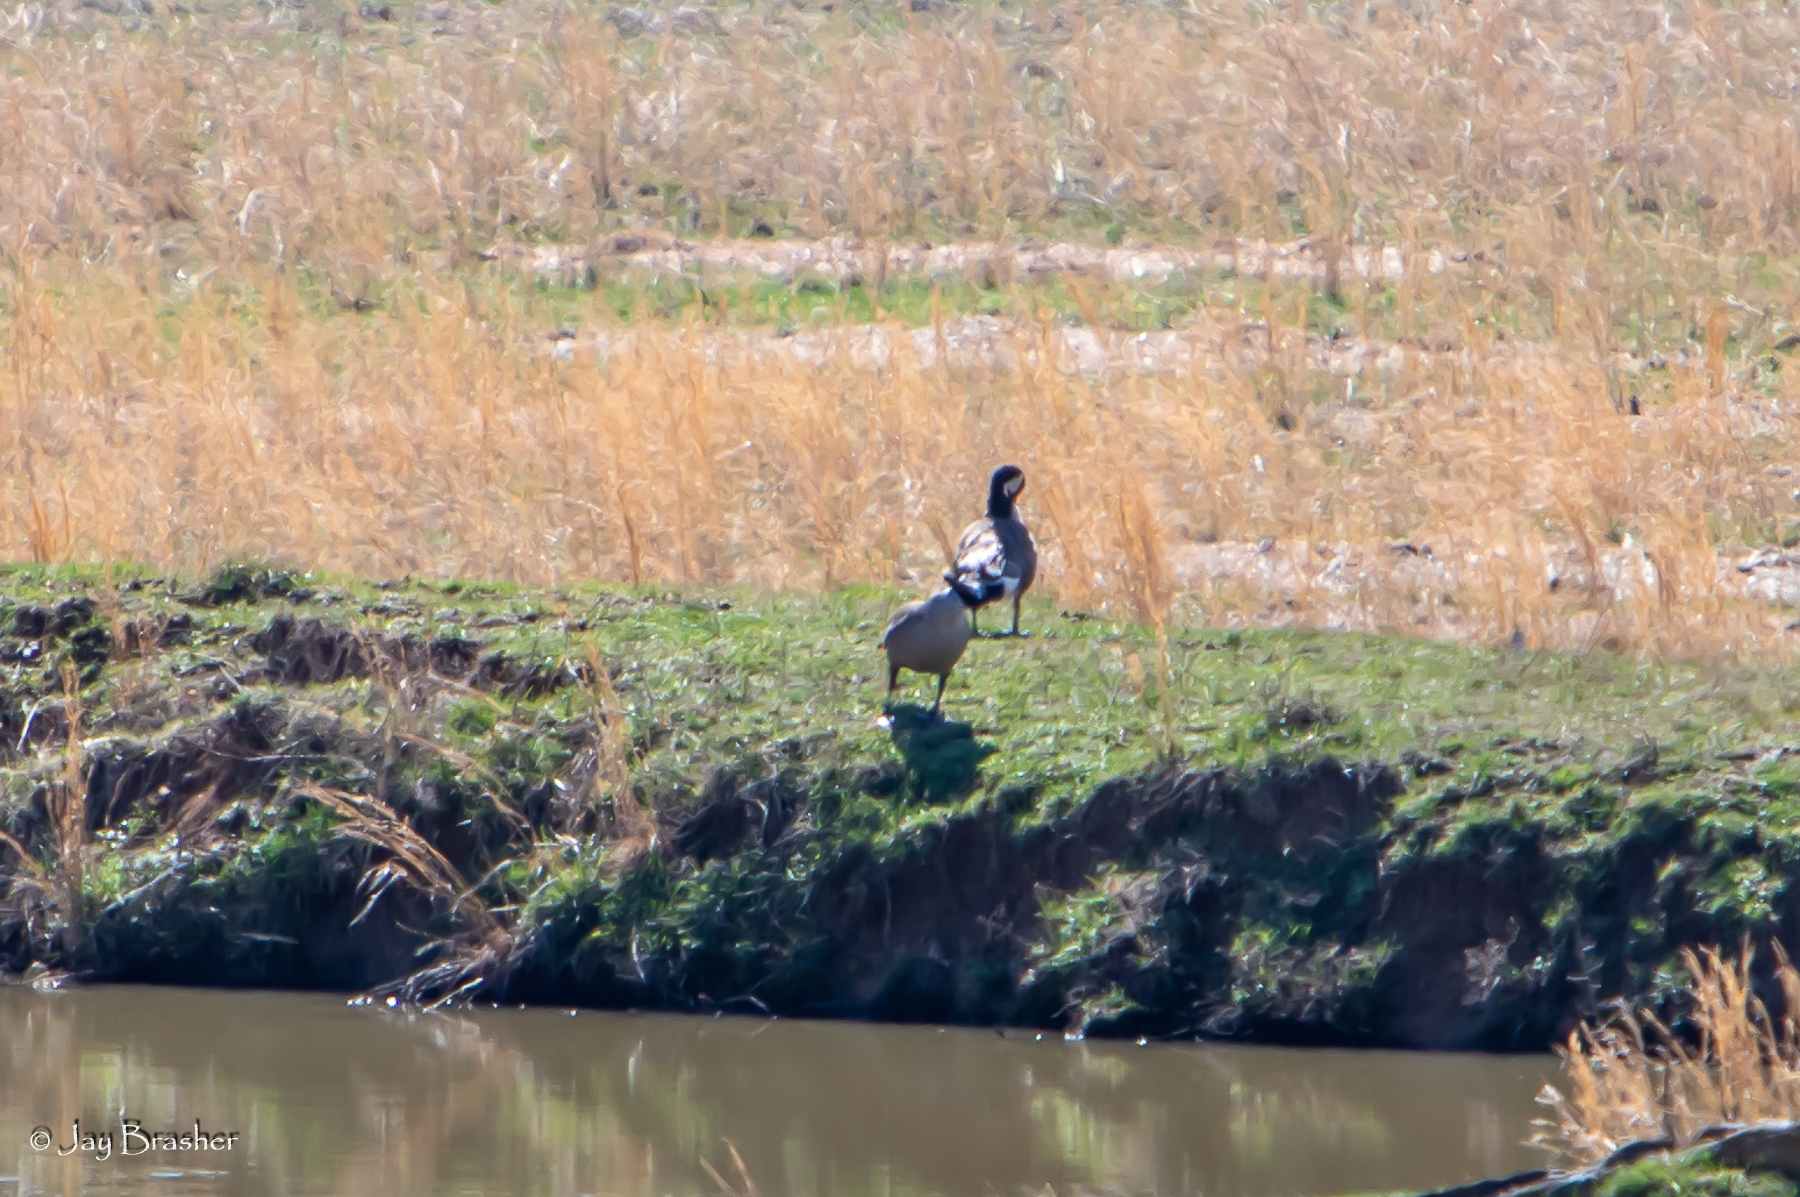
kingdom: Animalia
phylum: Chordata
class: Aves
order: Anseriformes
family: Anatidae
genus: Branta
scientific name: Branta canadensis
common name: Canada goose
